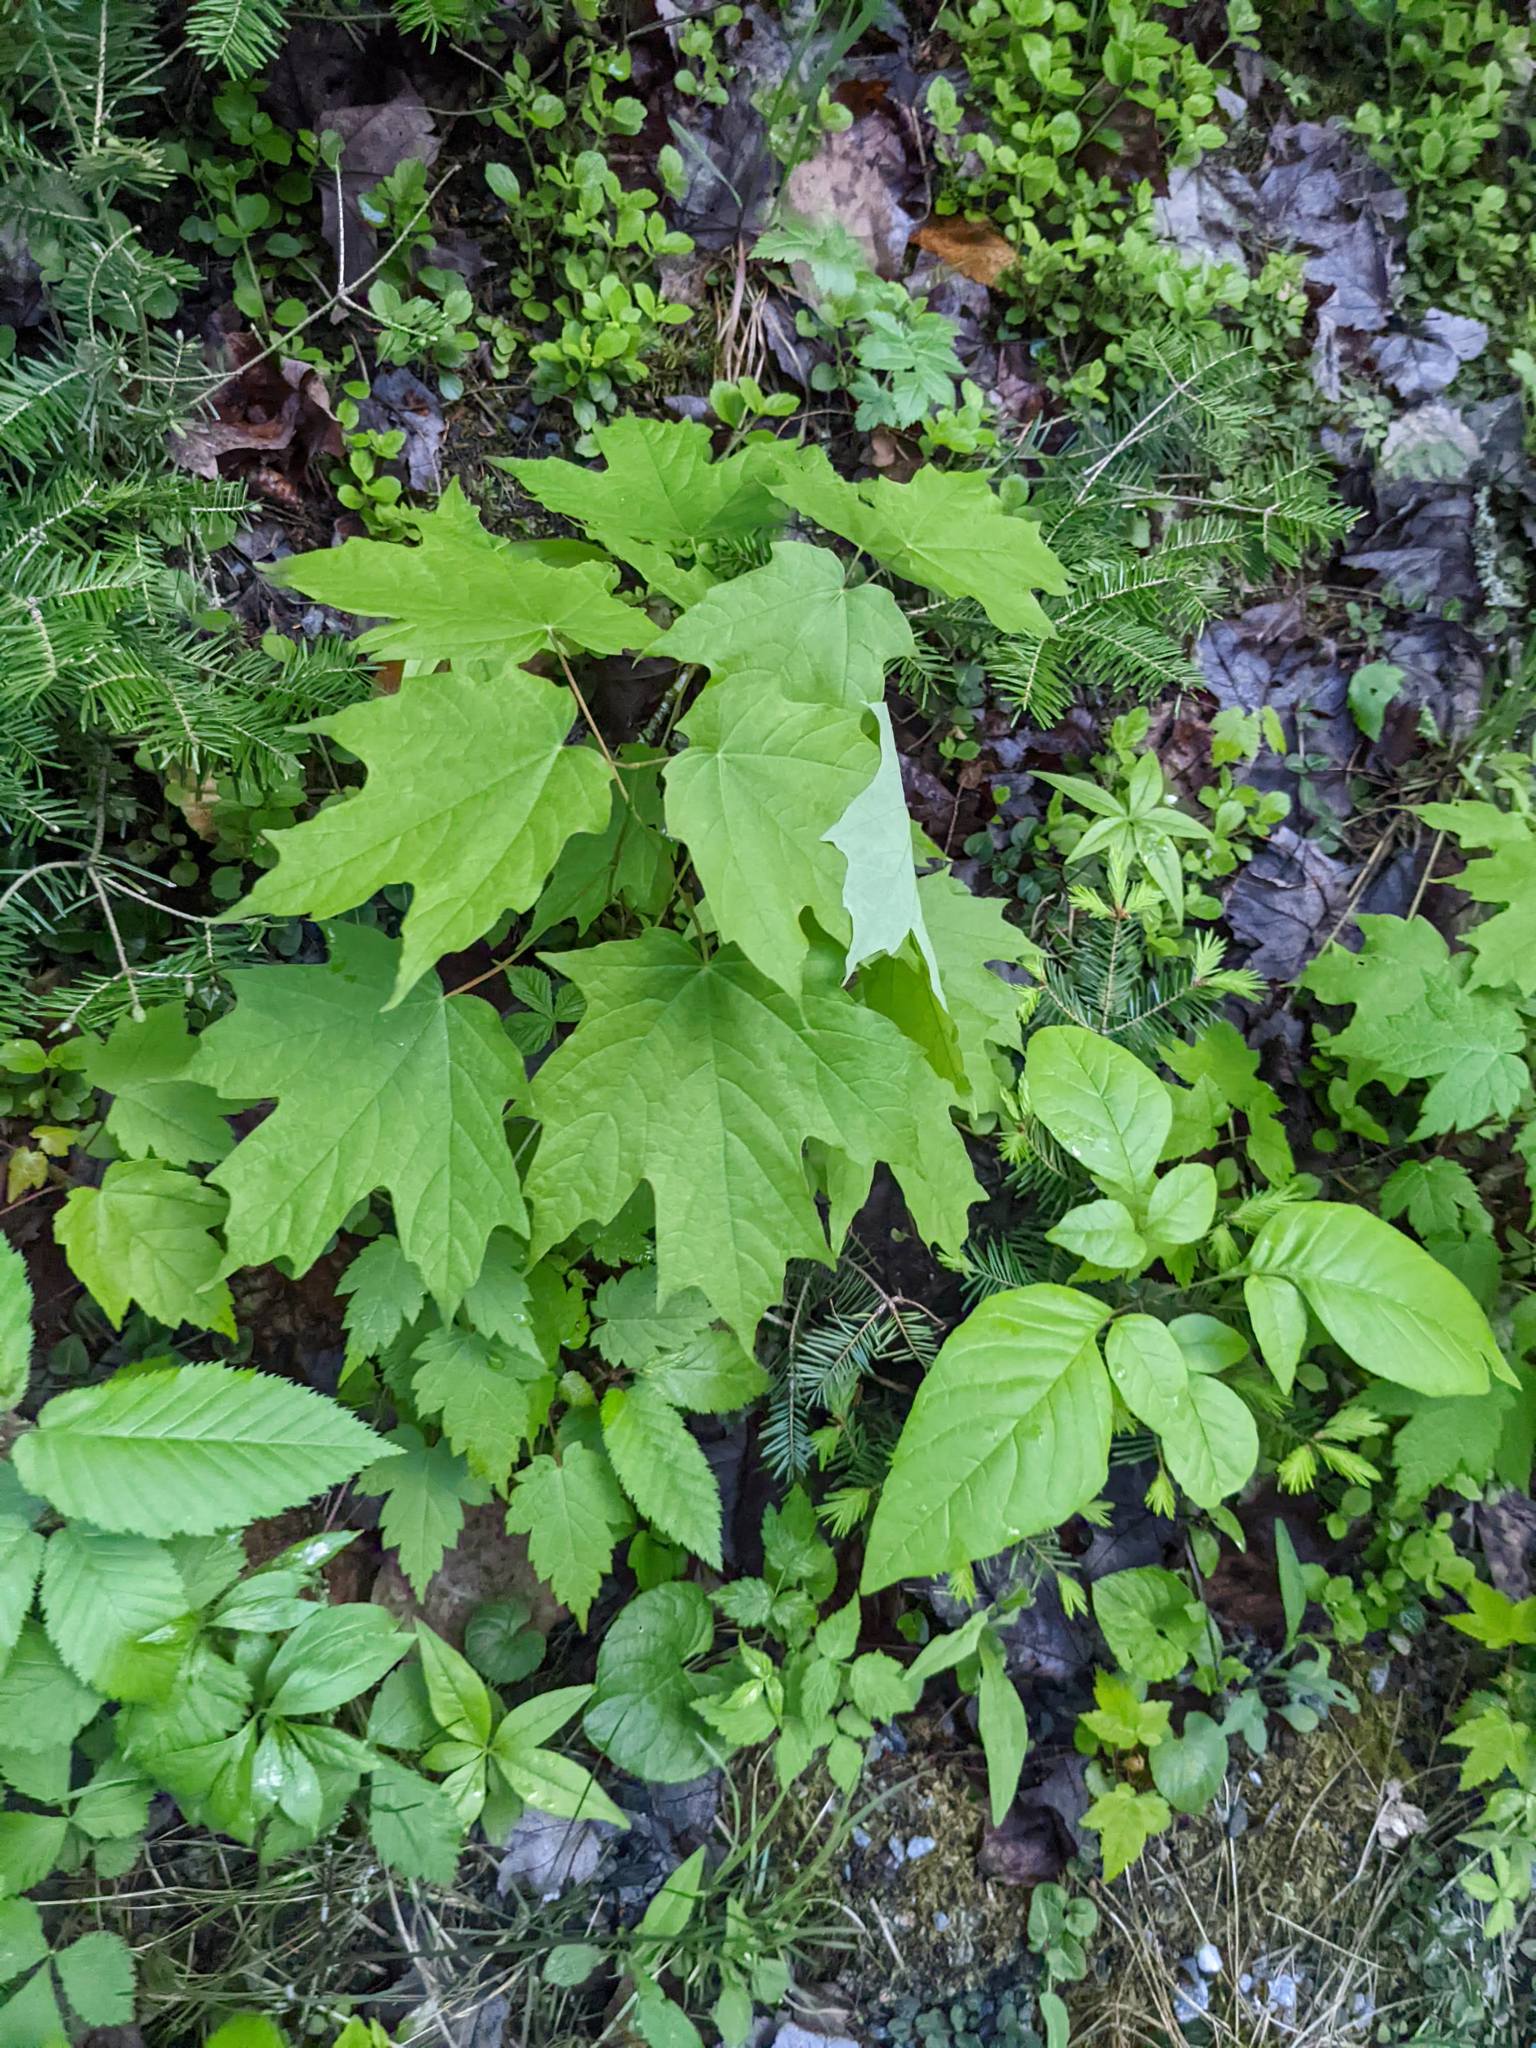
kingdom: Plantae
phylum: Tracheophyta
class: Magnoliopsida
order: Sapindales
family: Sapindaceae
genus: Acer
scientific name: Acer saccharum
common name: Sugar maple
